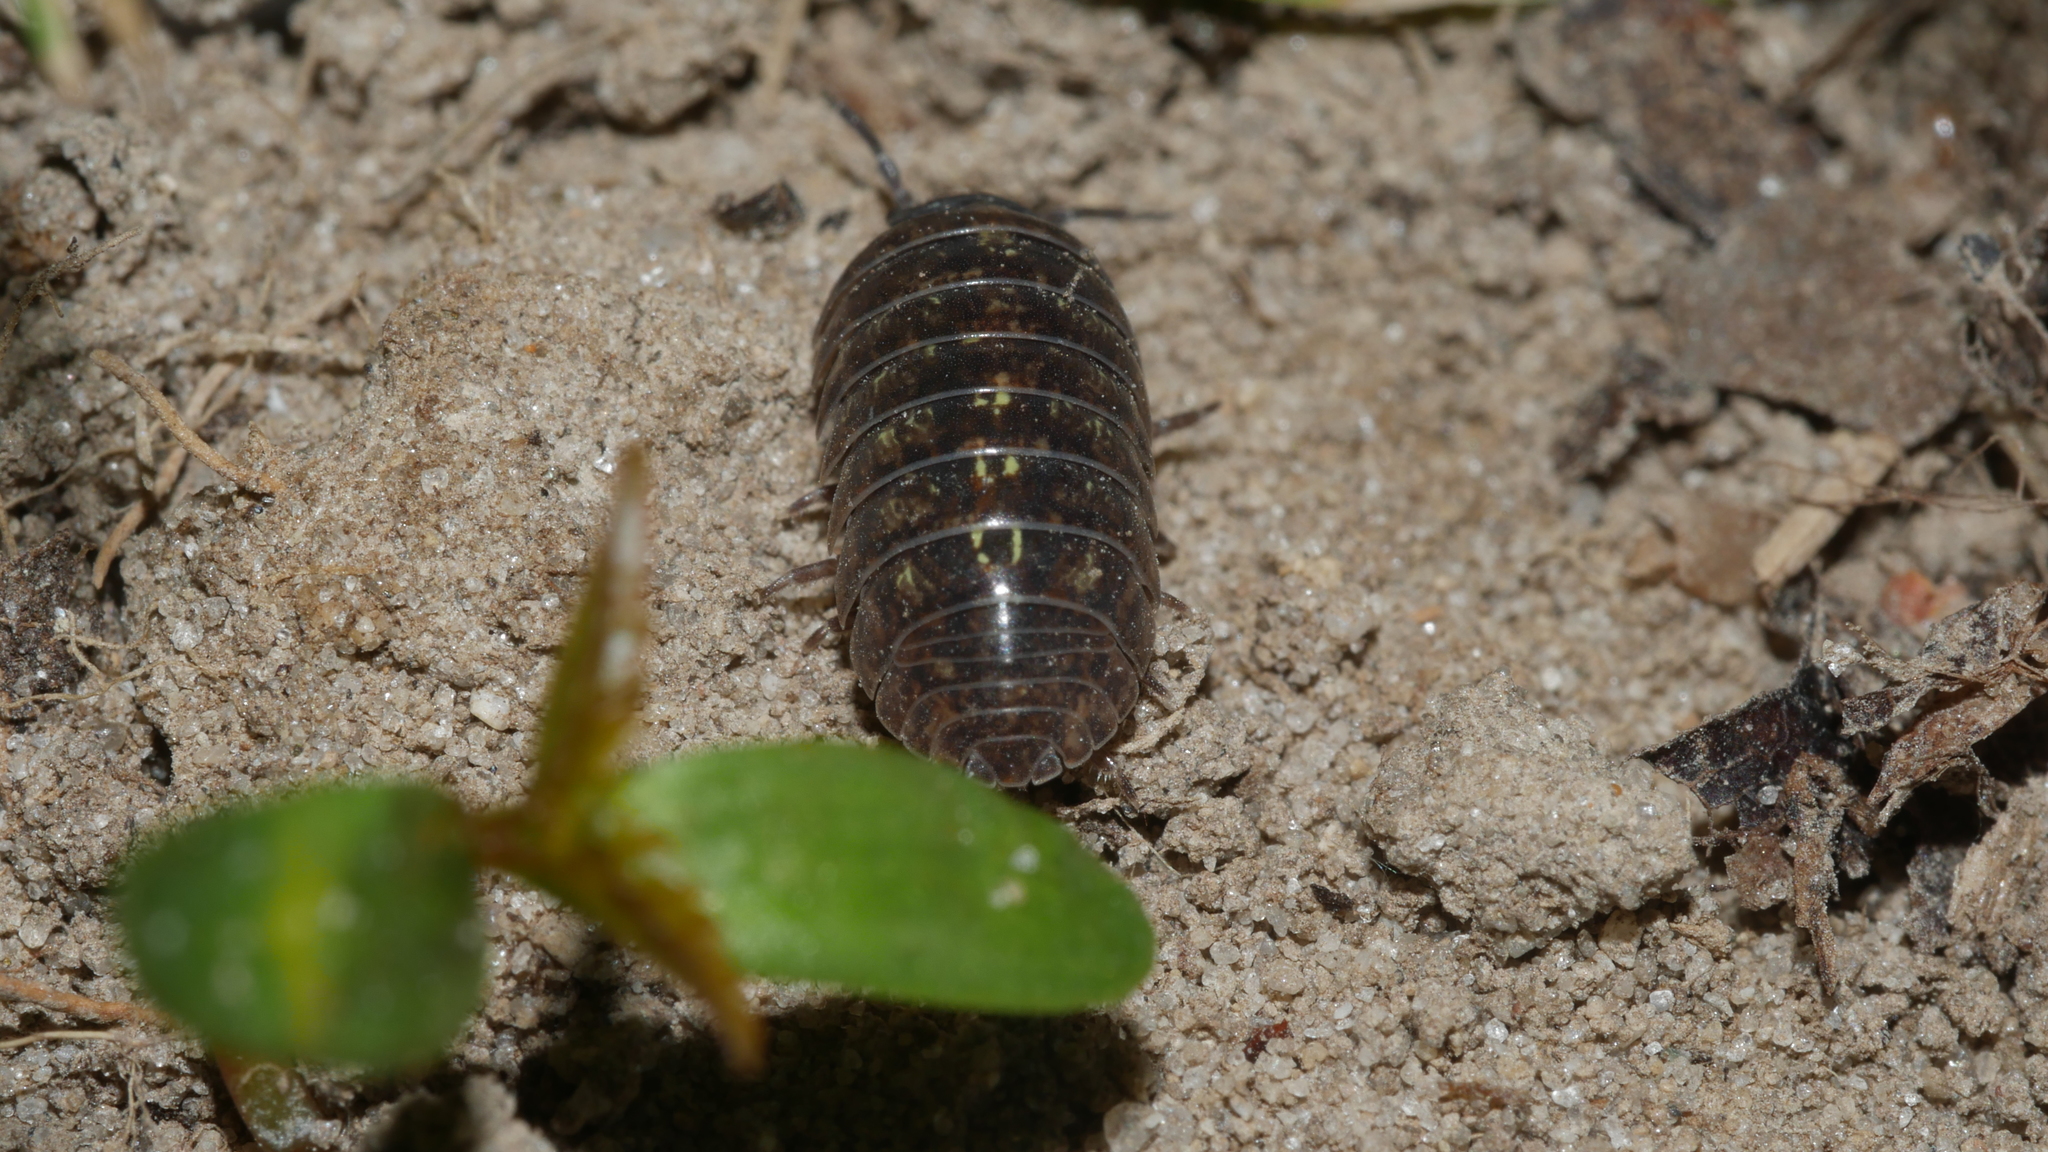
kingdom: Animalia
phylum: Arthropoda
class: Malacostraca
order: Isopoda
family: Armadillidiidae
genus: Armadillidium
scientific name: Armadillidium vulgare
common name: Common pill woodlouse
